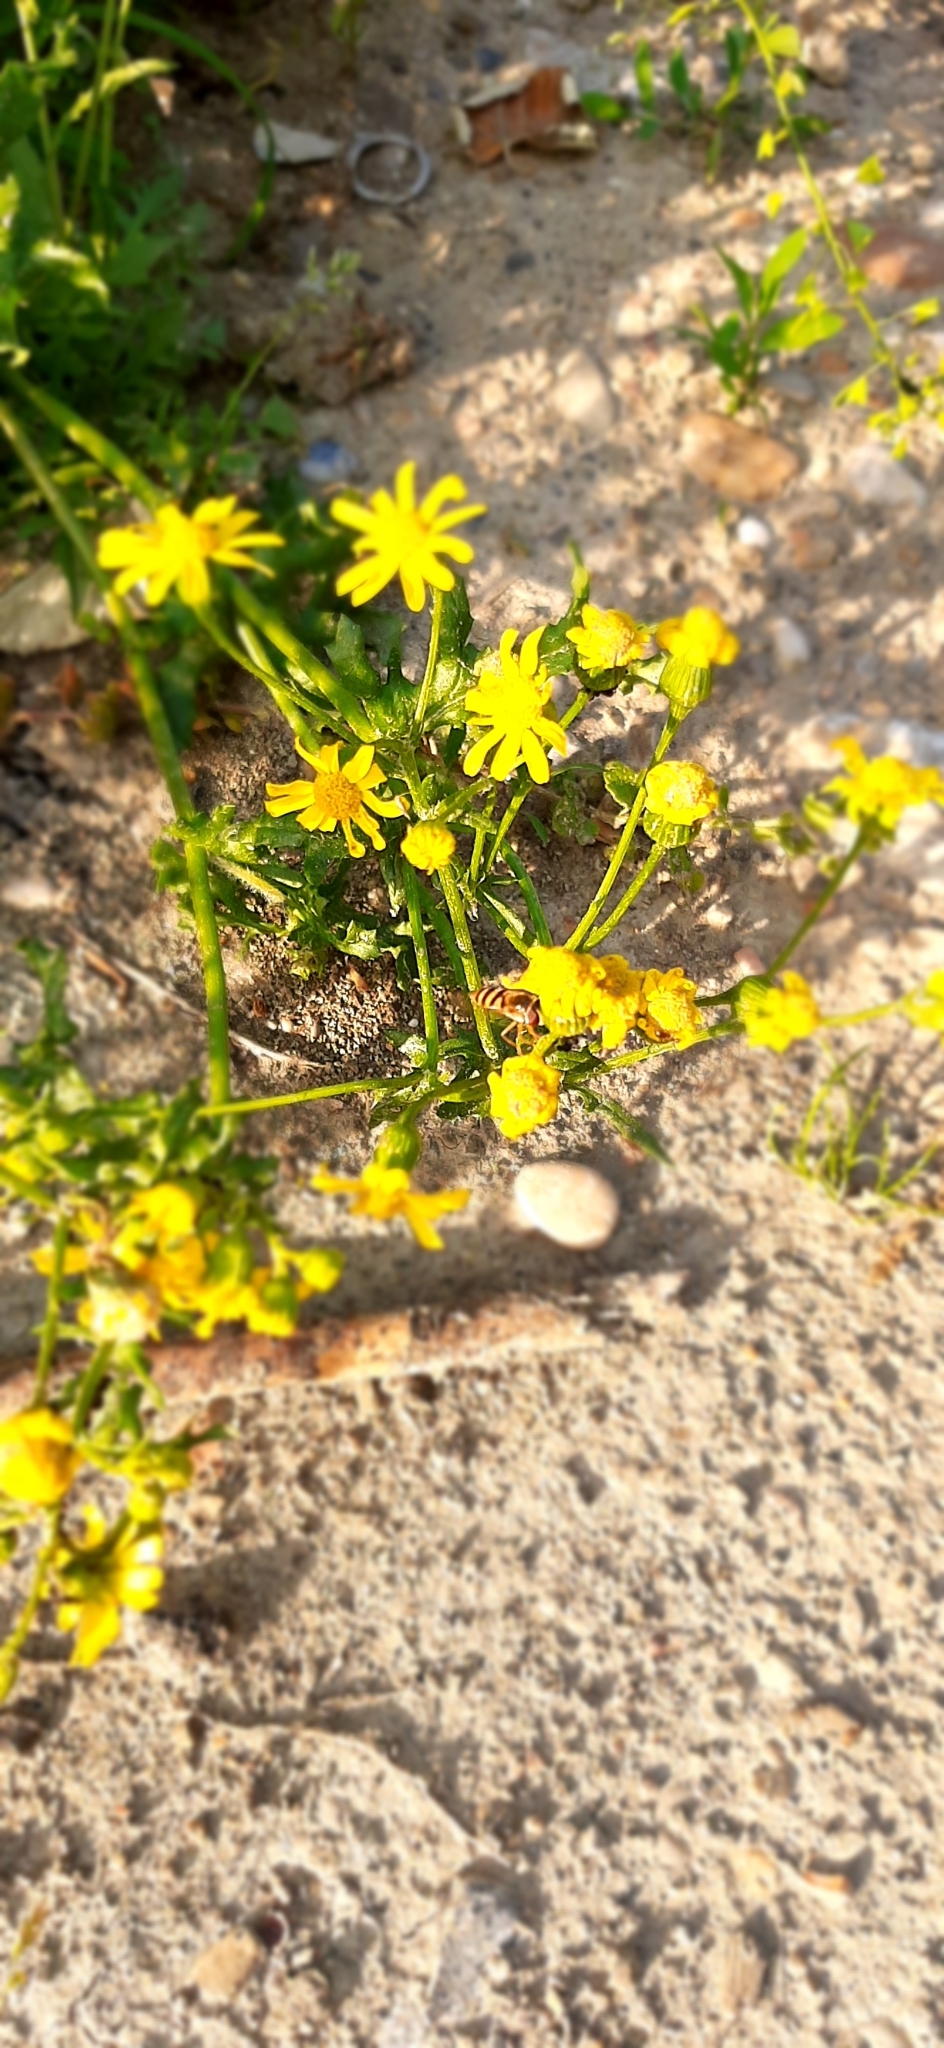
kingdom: Plantae
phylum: Tracheophyta
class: Magnoliopsida
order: Asterales
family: Asteraceae
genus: Senecio
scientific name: Senecio vernalis
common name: Eastern groundsel
